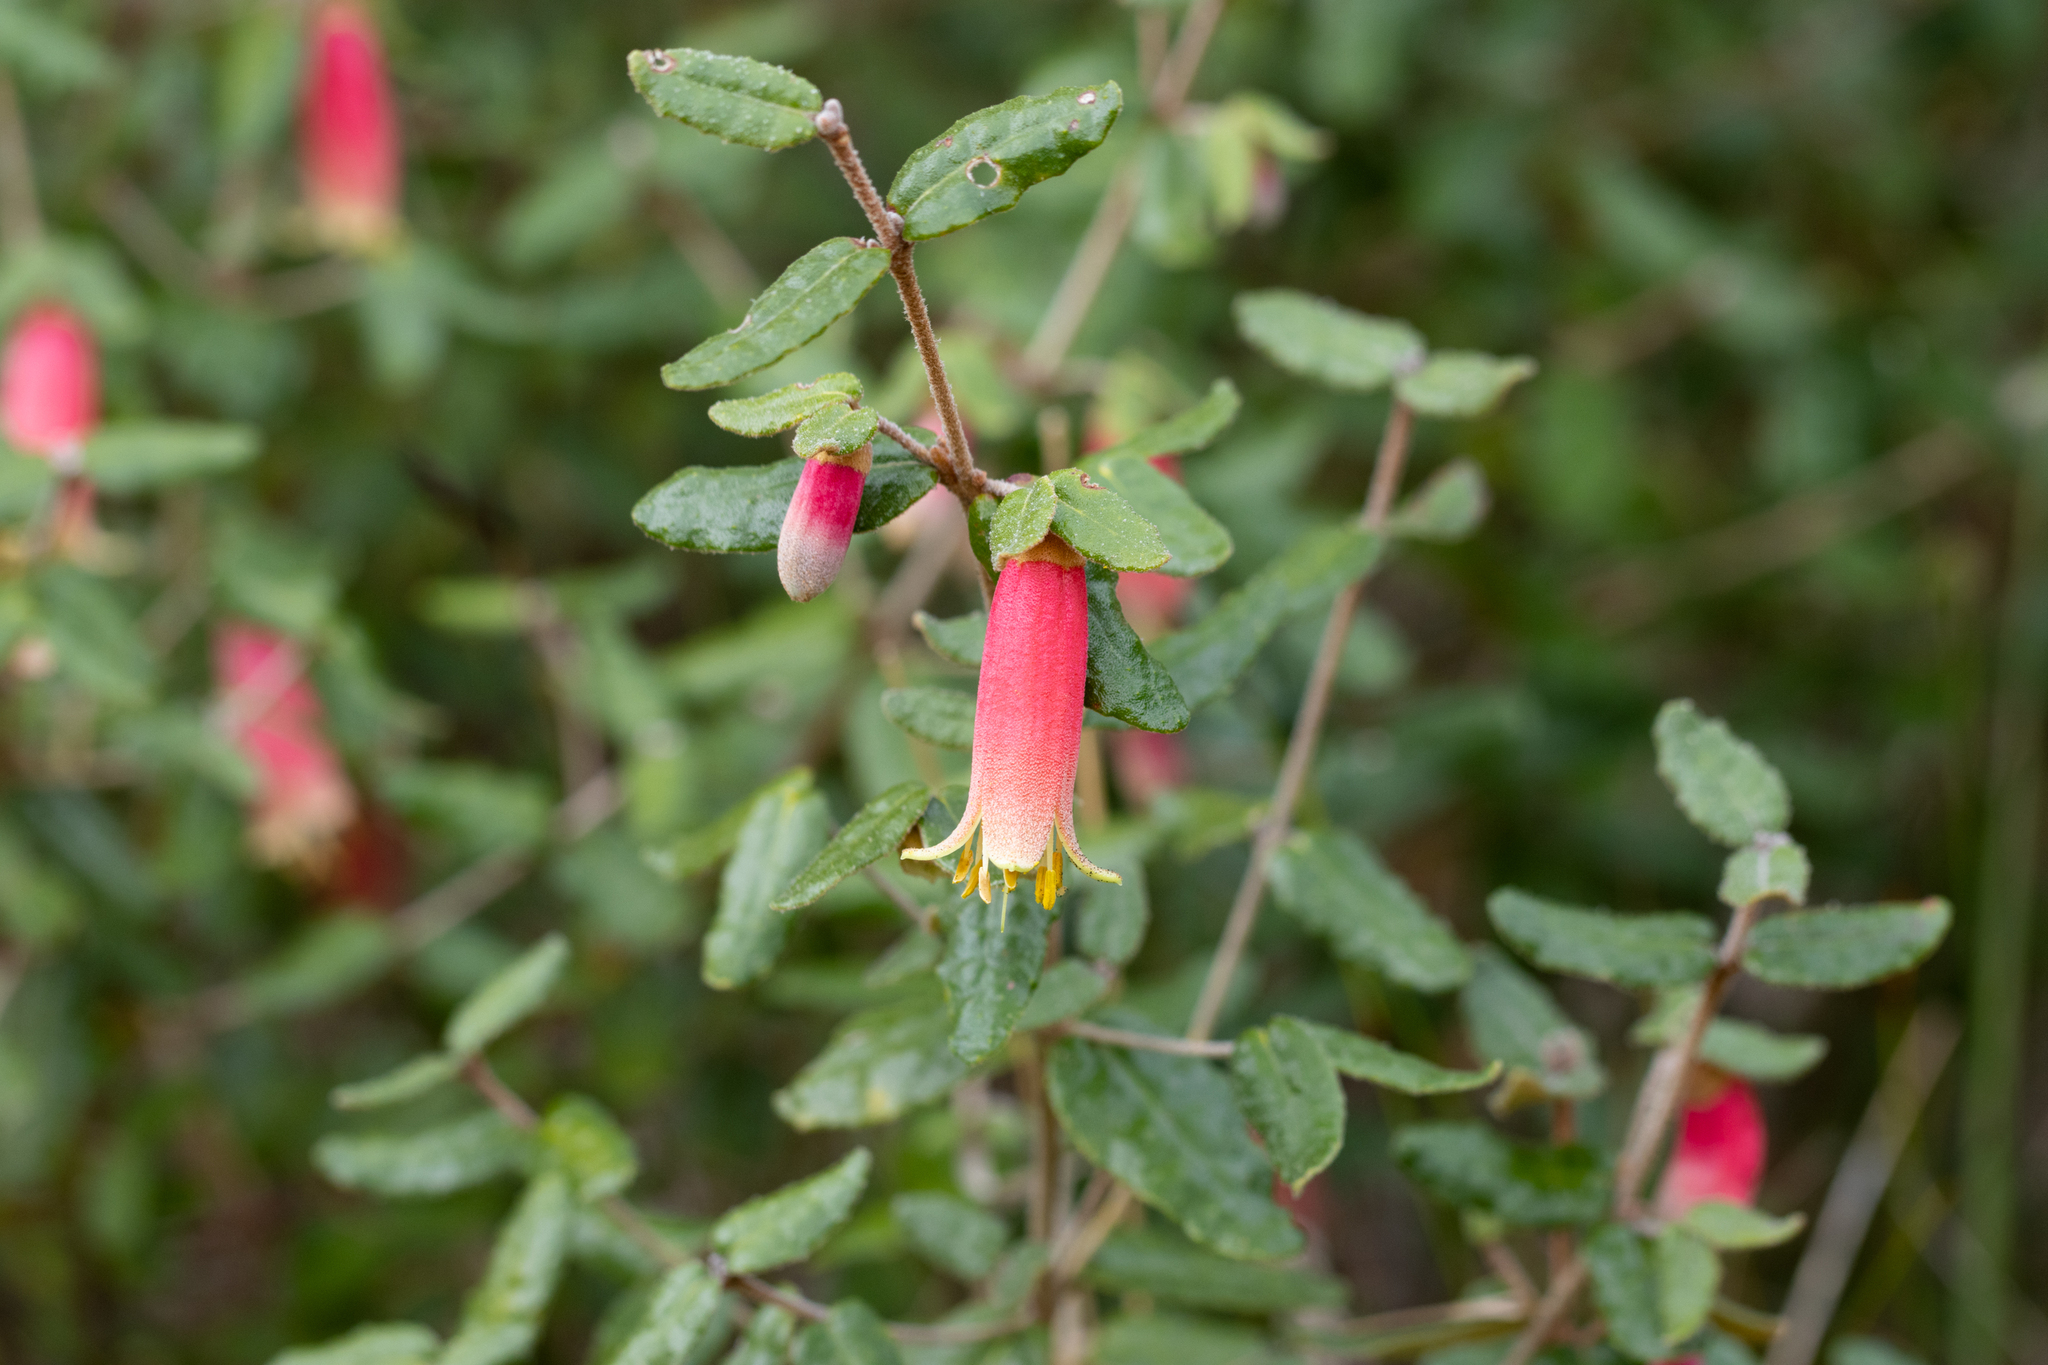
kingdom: Plantae
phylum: Tracheophyta
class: Magnoliopsida
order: Sapindales
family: Rutaceae
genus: Correa
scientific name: Correa reflexa
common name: Common correa
